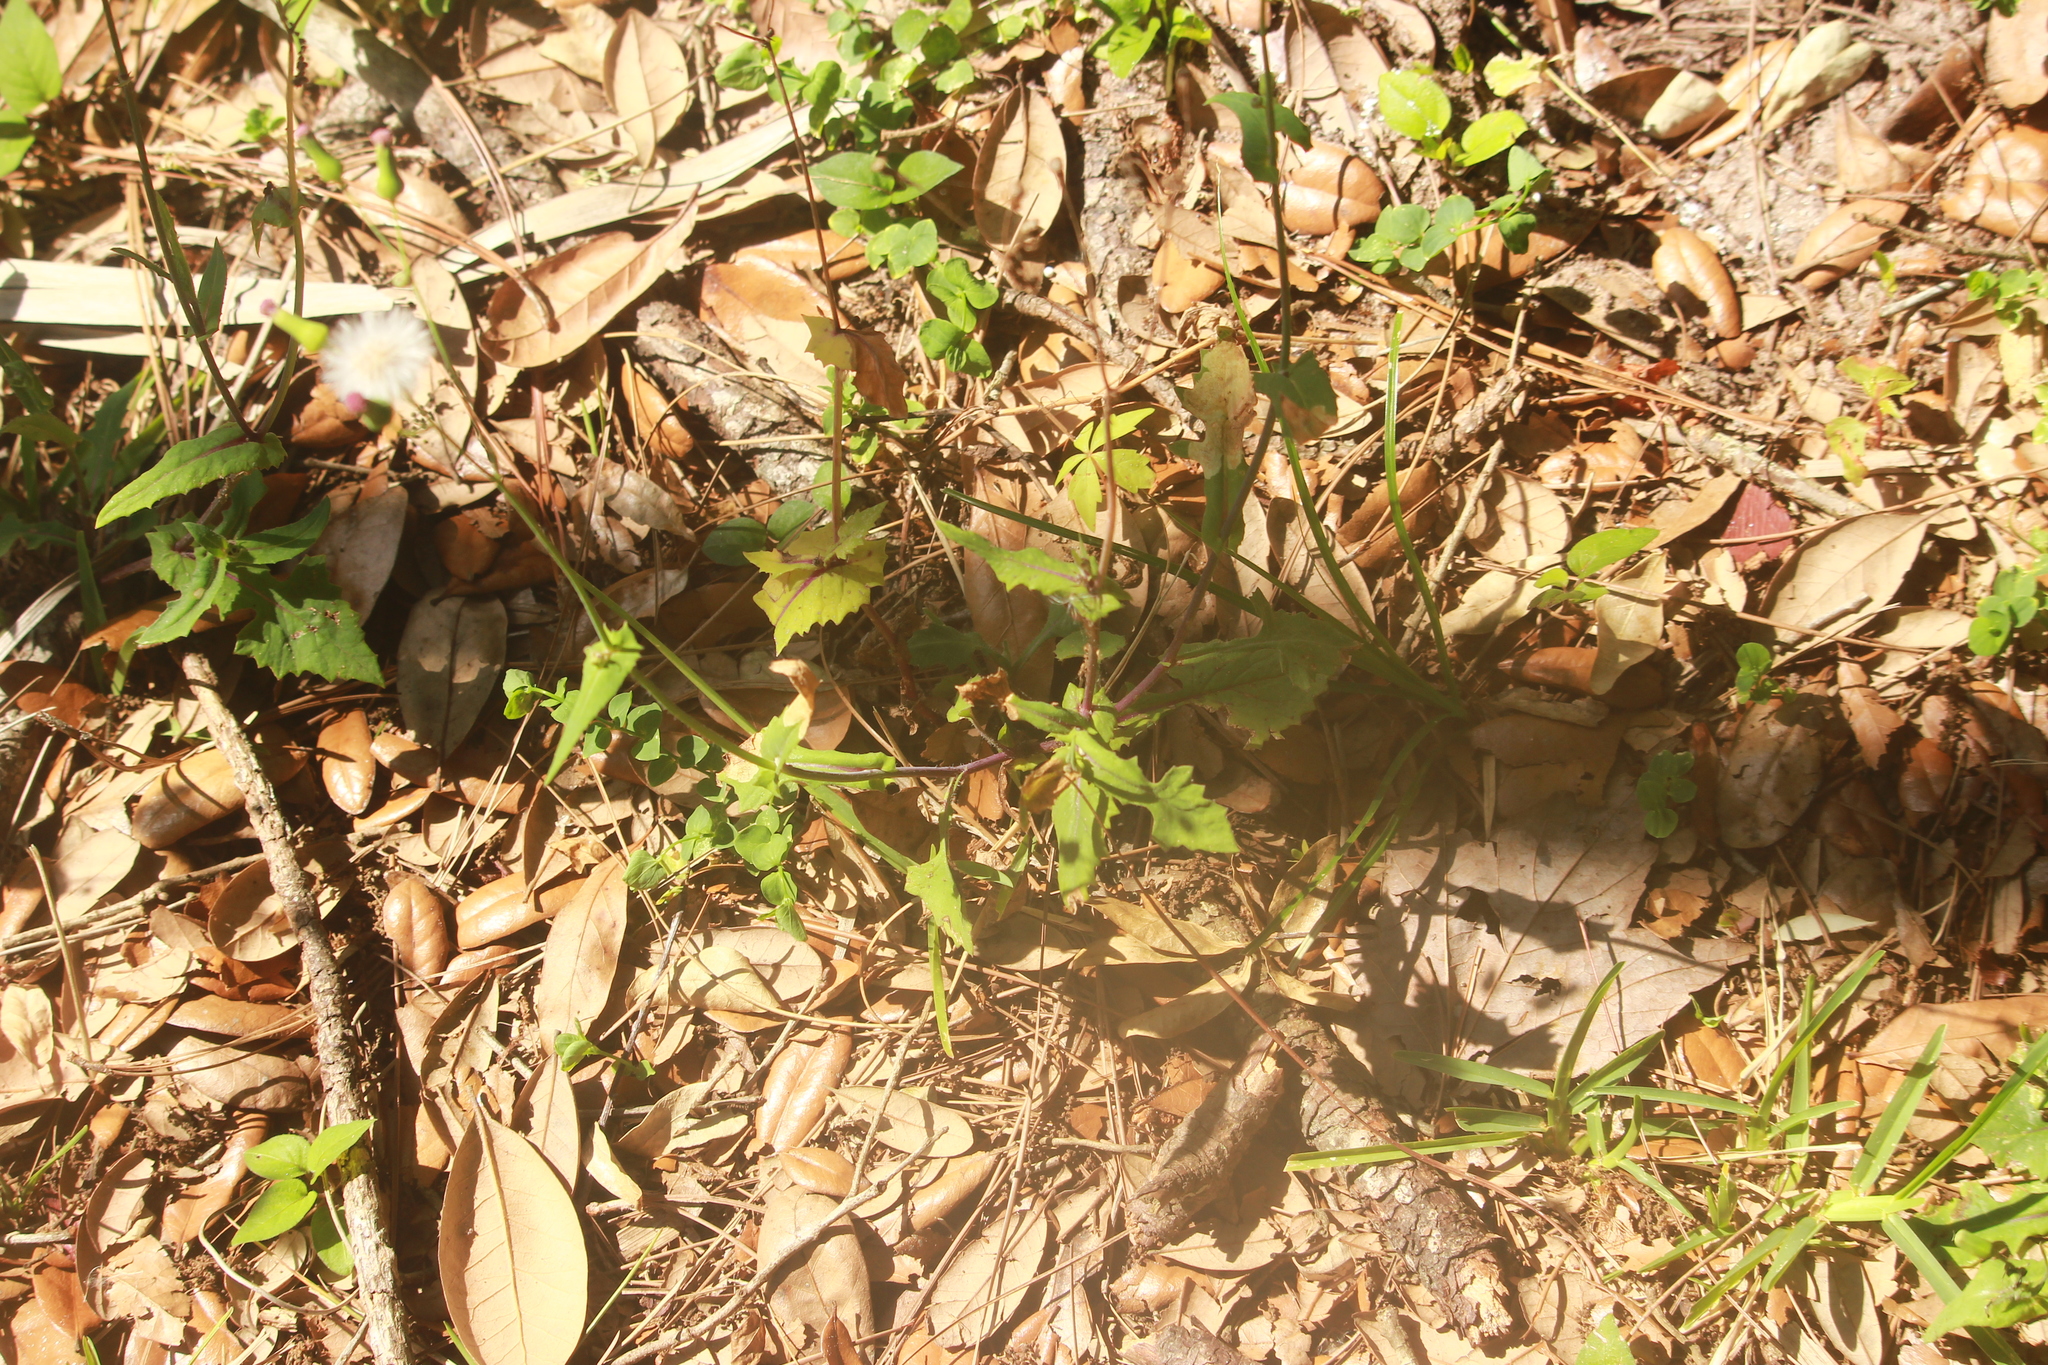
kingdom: Plantae
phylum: Tracheophyta
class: Magnoliopsida
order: Asterales
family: Asteraceae
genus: Emilia
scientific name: Emilia sonchifolia
